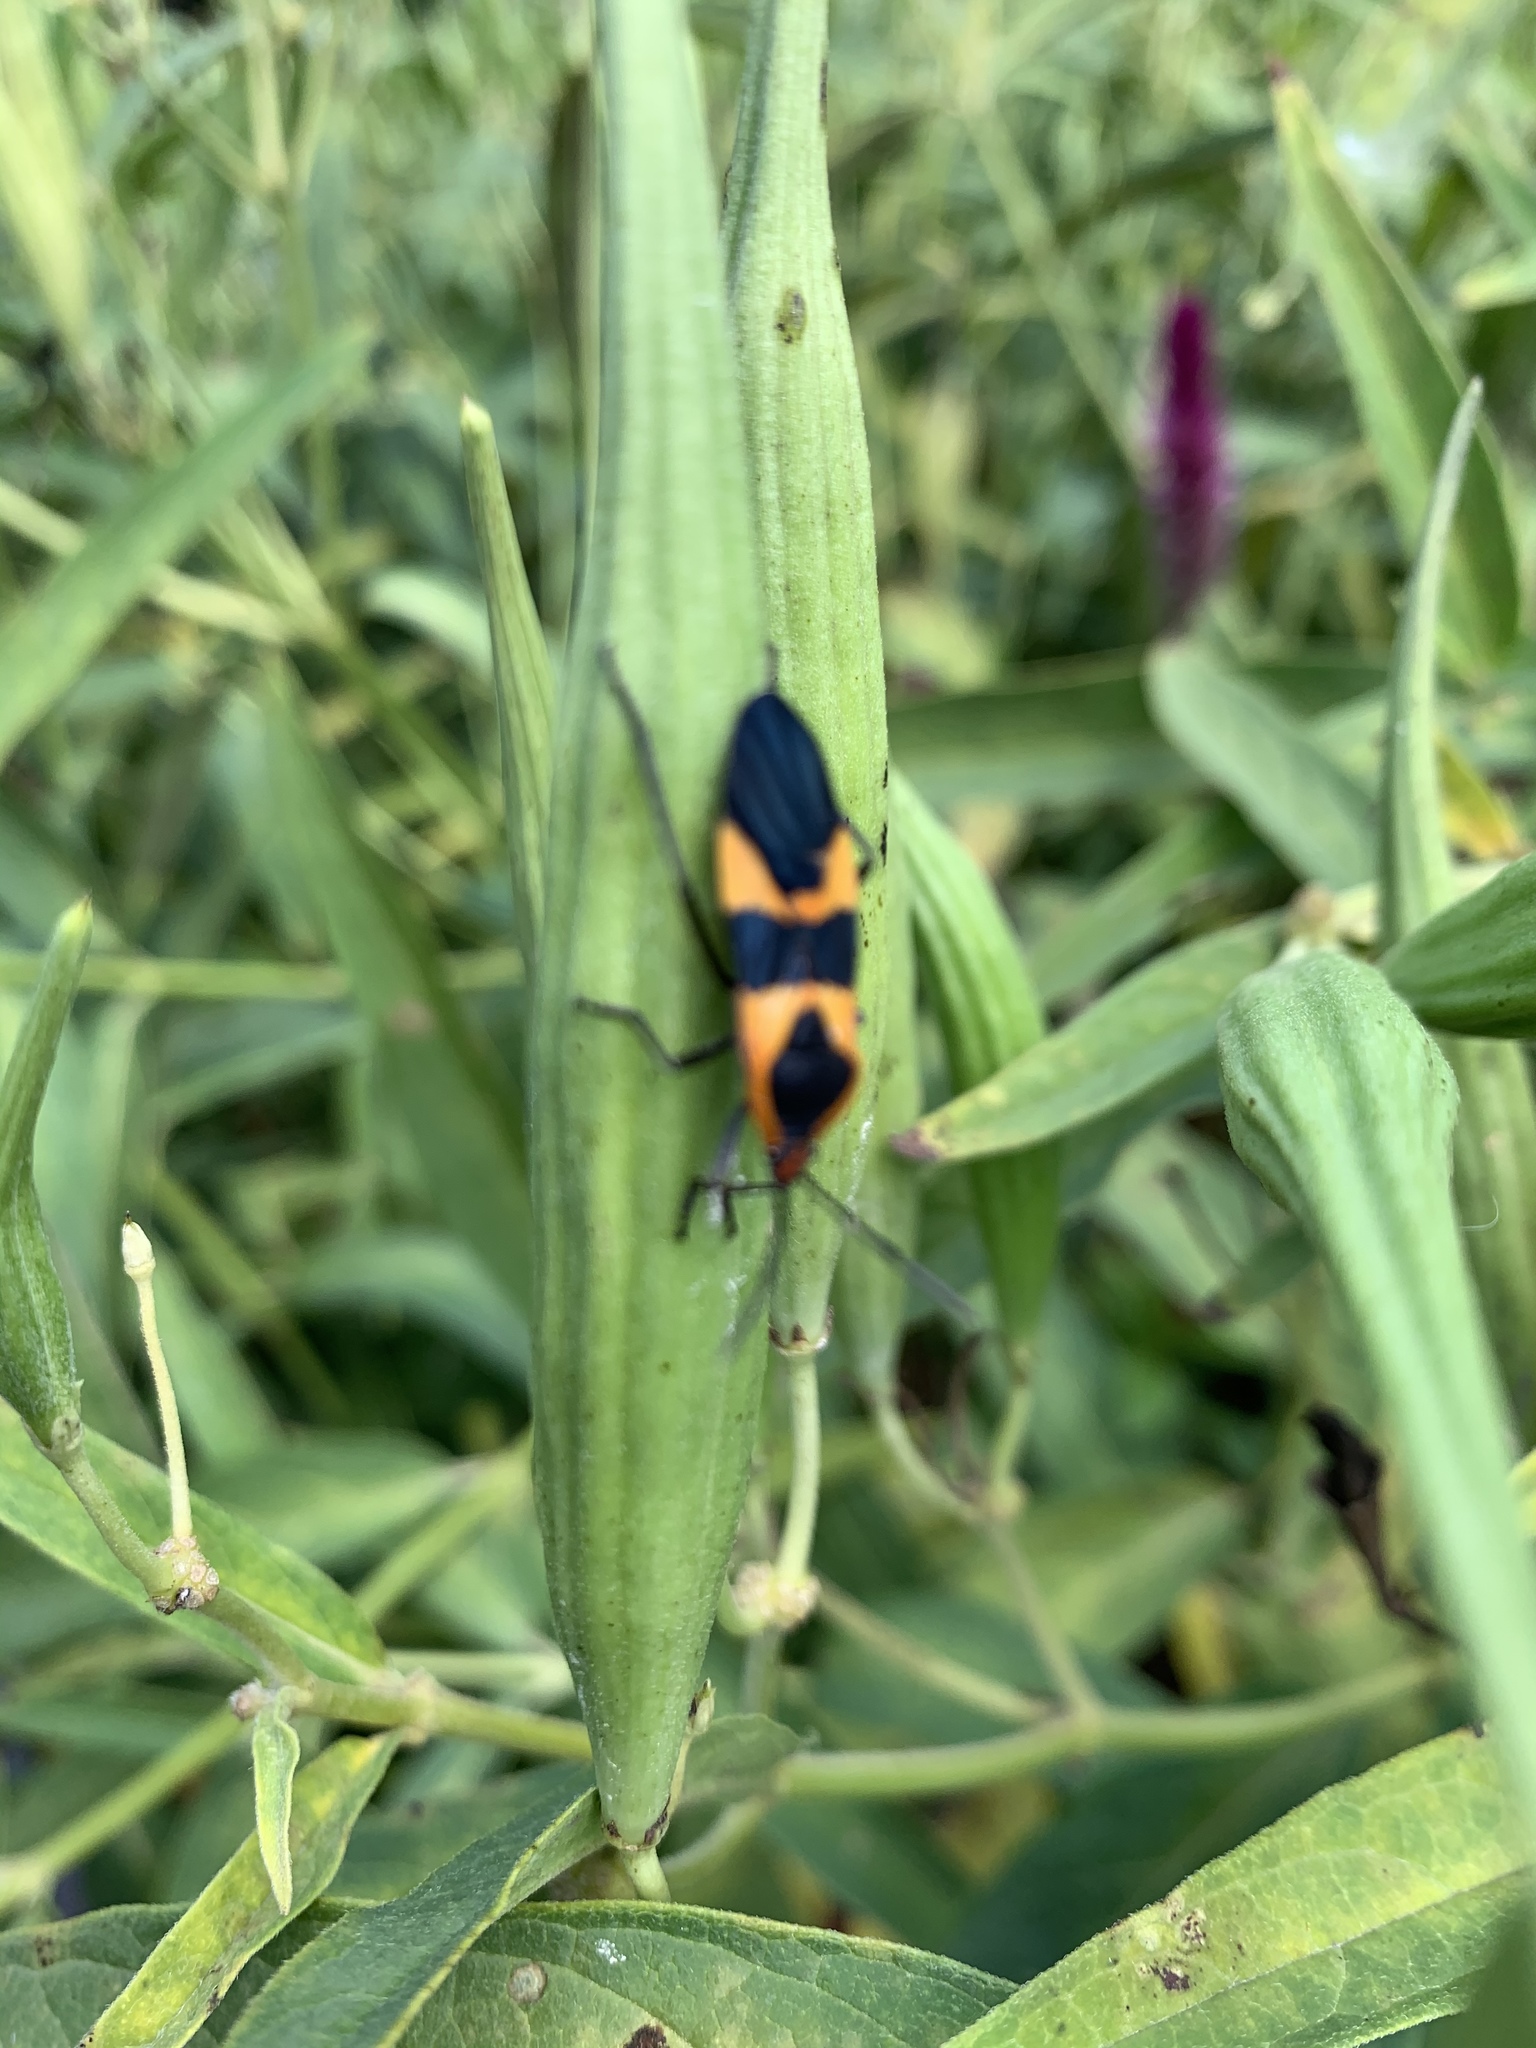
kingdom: Animalia
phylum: Arthropoda
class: Insecta
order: Hemiptera
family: Lygaeidae
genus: Oncopeltus
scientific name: Oncopeltus fasciatus
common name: Large milkweed bug
